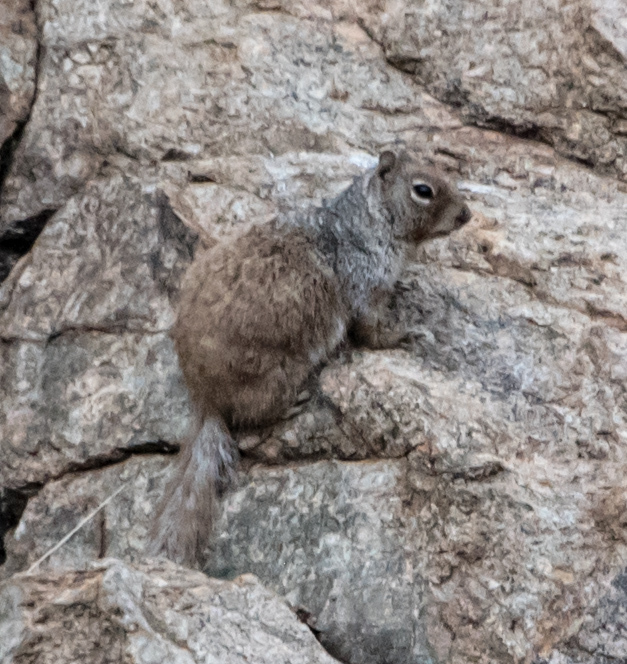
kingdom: Animalia
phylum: Chordata
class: Mammalia
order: Rodentia
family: Sciuridae
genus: Otospermophilus
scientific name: Otospermophilus variegatus
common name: Rock squirrel
